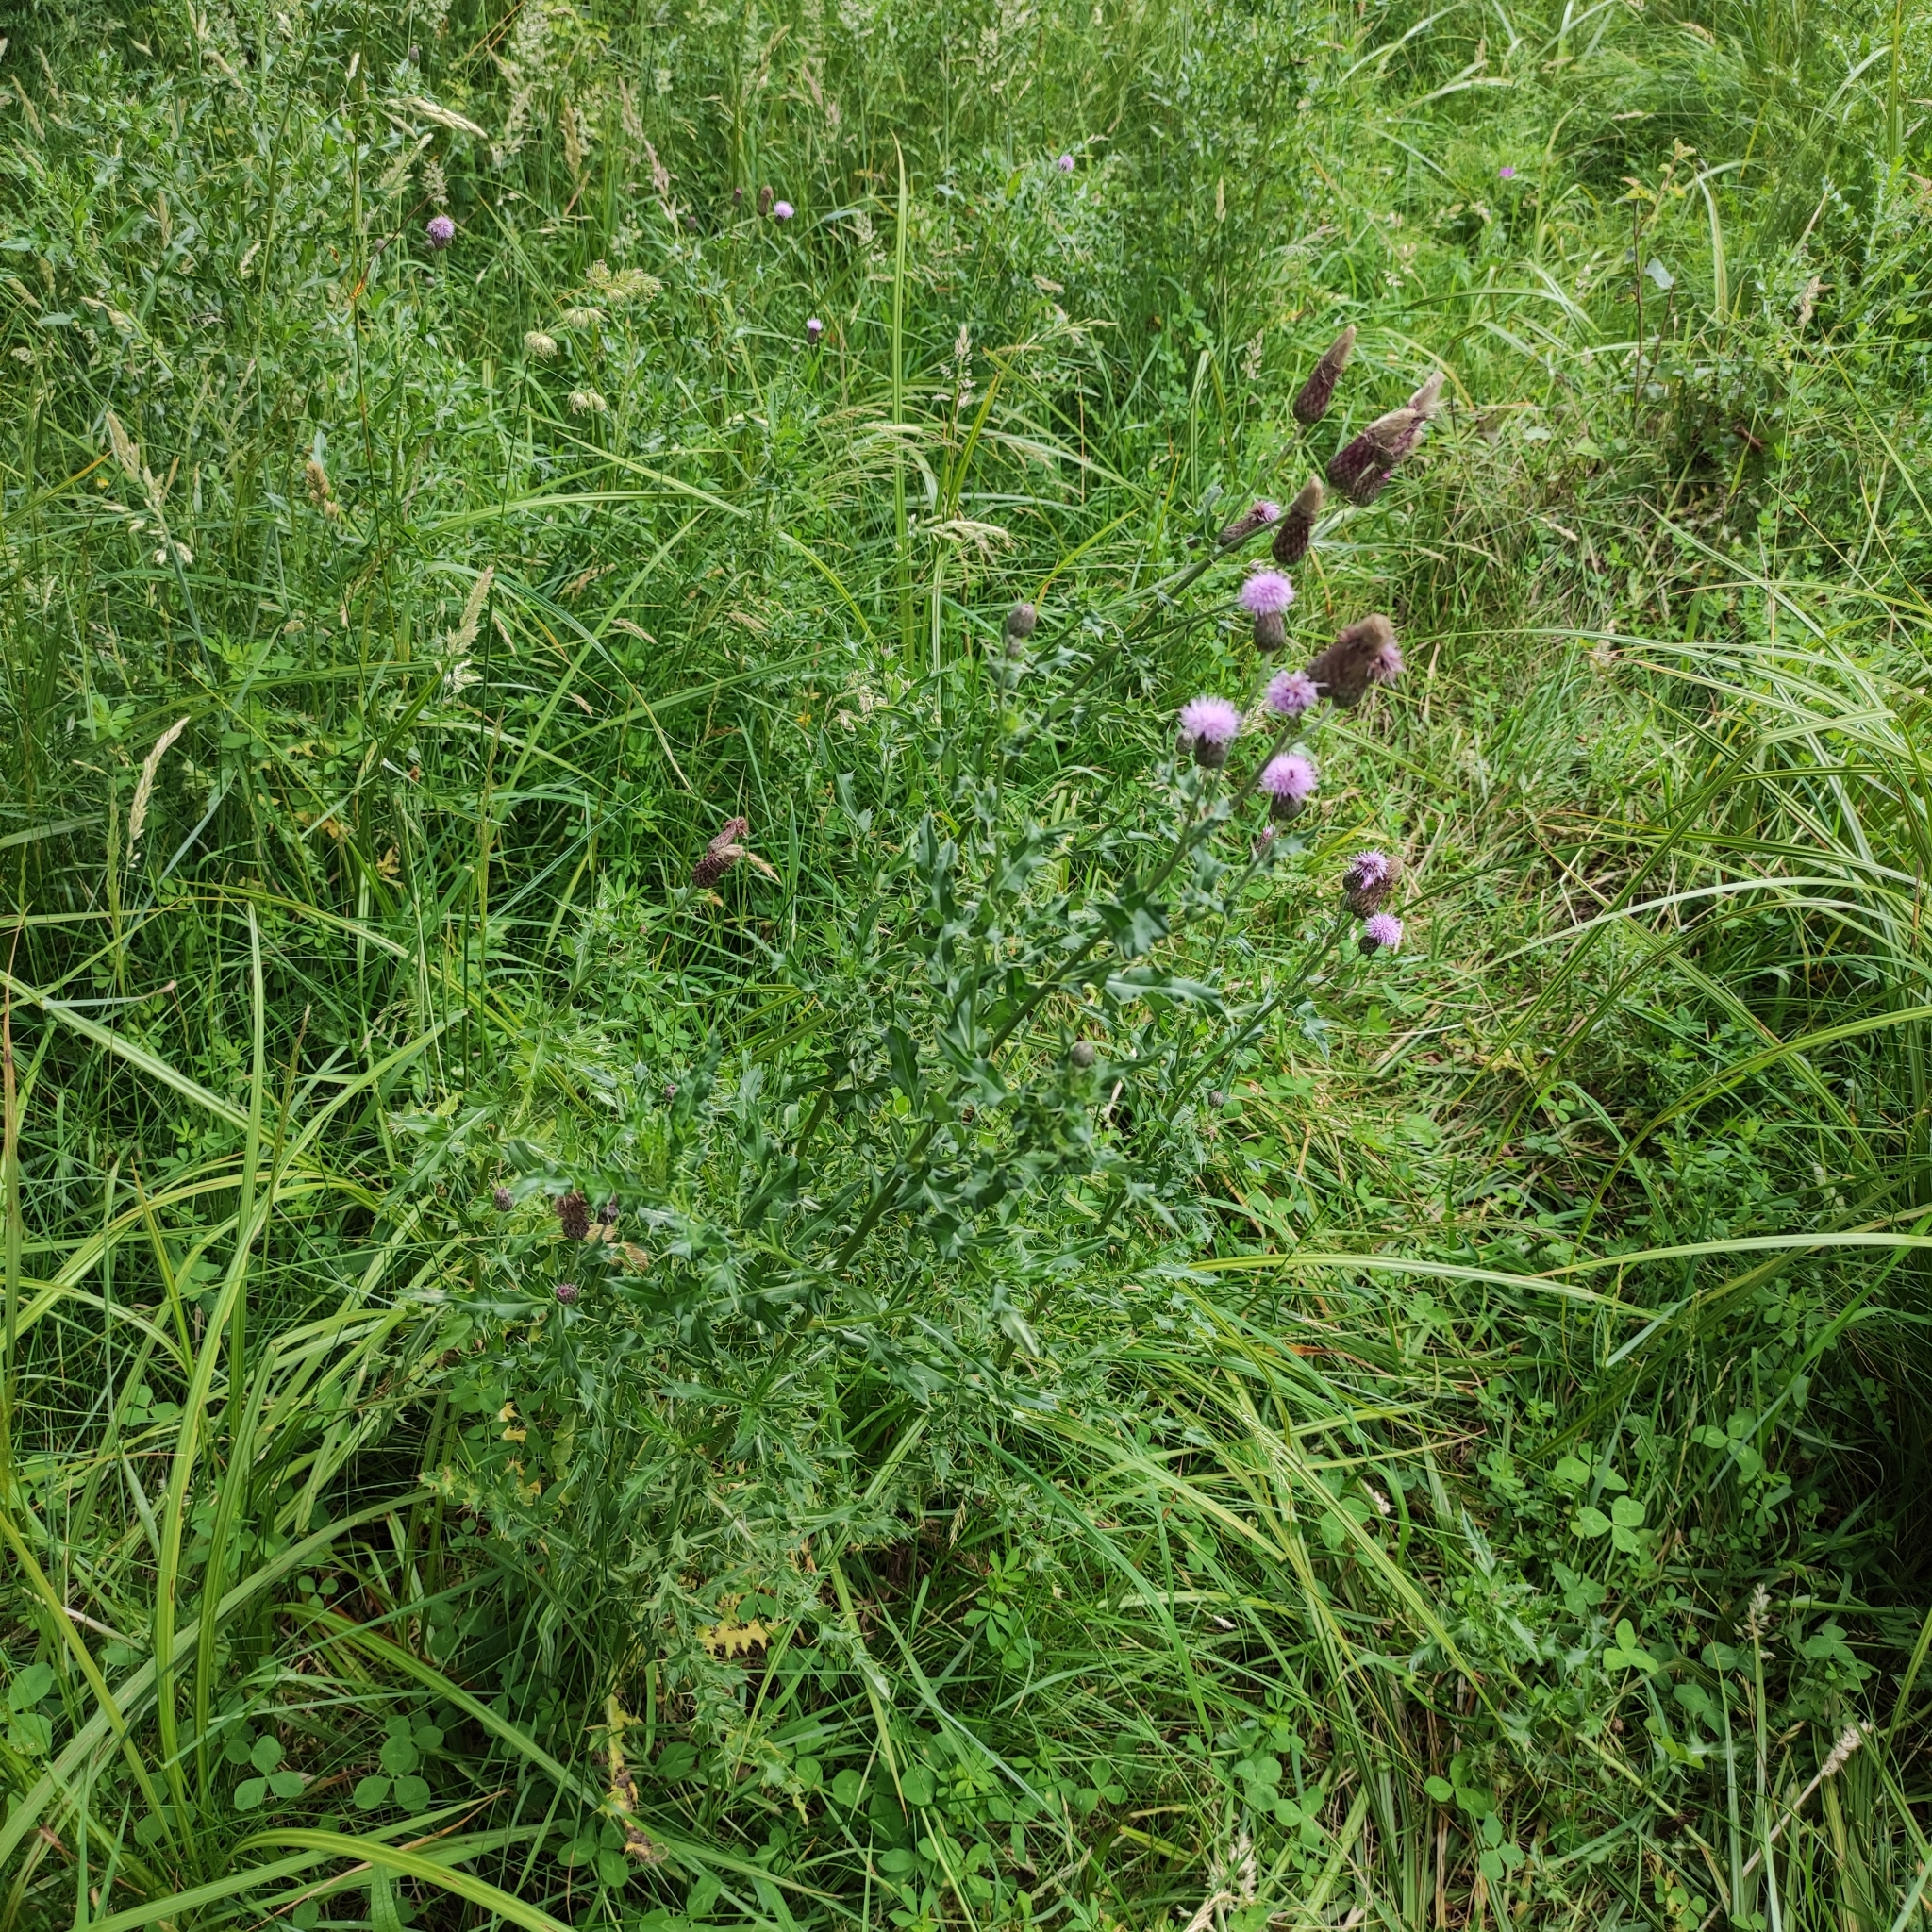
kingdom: Plantae
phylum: Tracheophyta
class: Magnoliopsida
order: Asterales
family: Asteraceae
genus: Cirsium
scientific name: Cirsium arvense
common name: Creeping thistle
